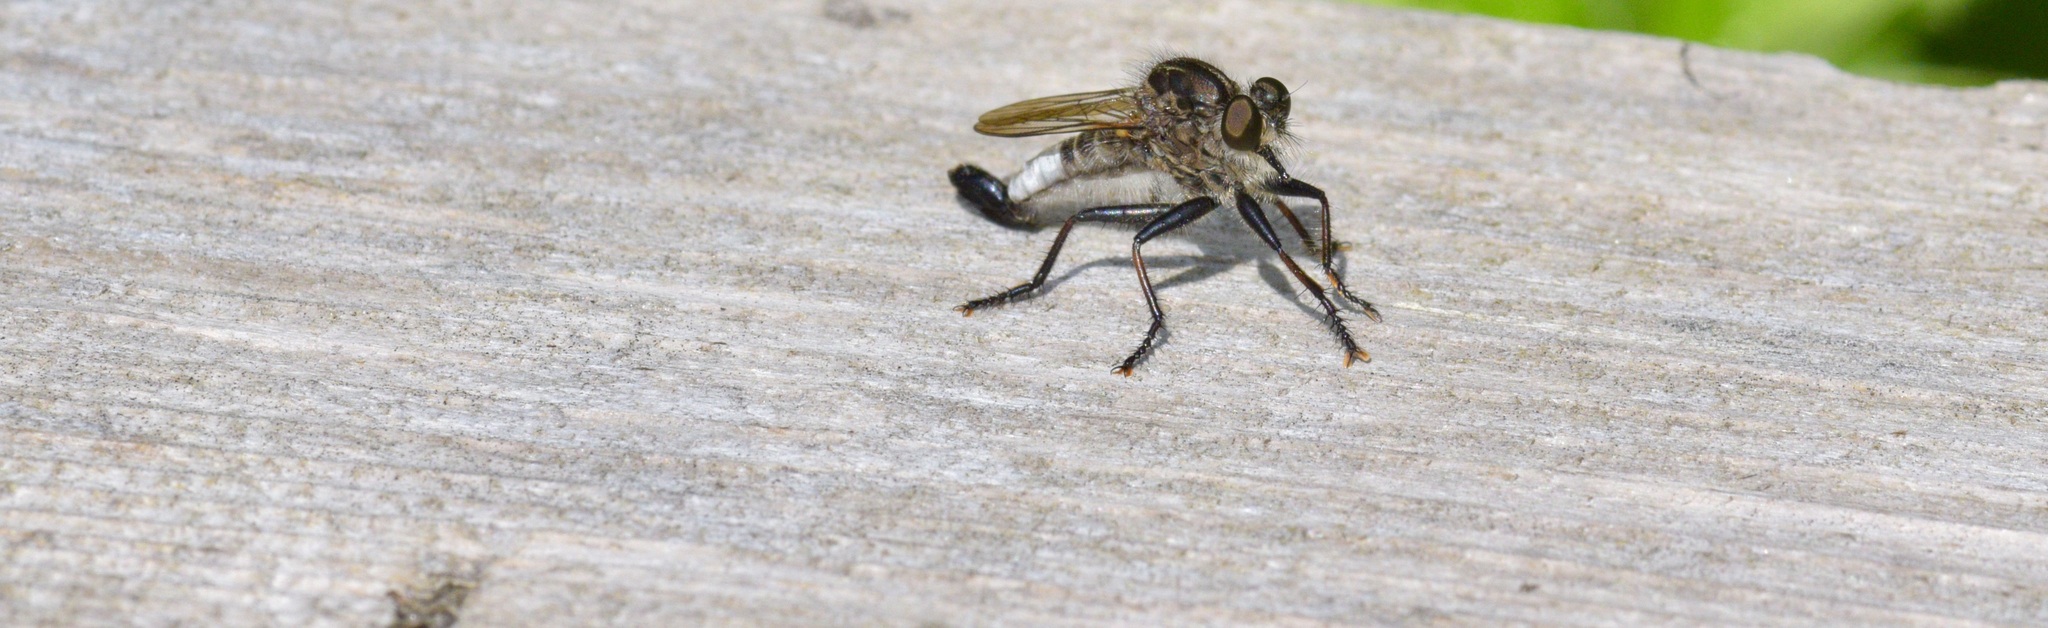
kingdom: Animalia
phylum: Arthropoda
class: Insecta
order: Diptera
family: Asilidae
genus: Efferia
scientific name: Efferia aestuans
